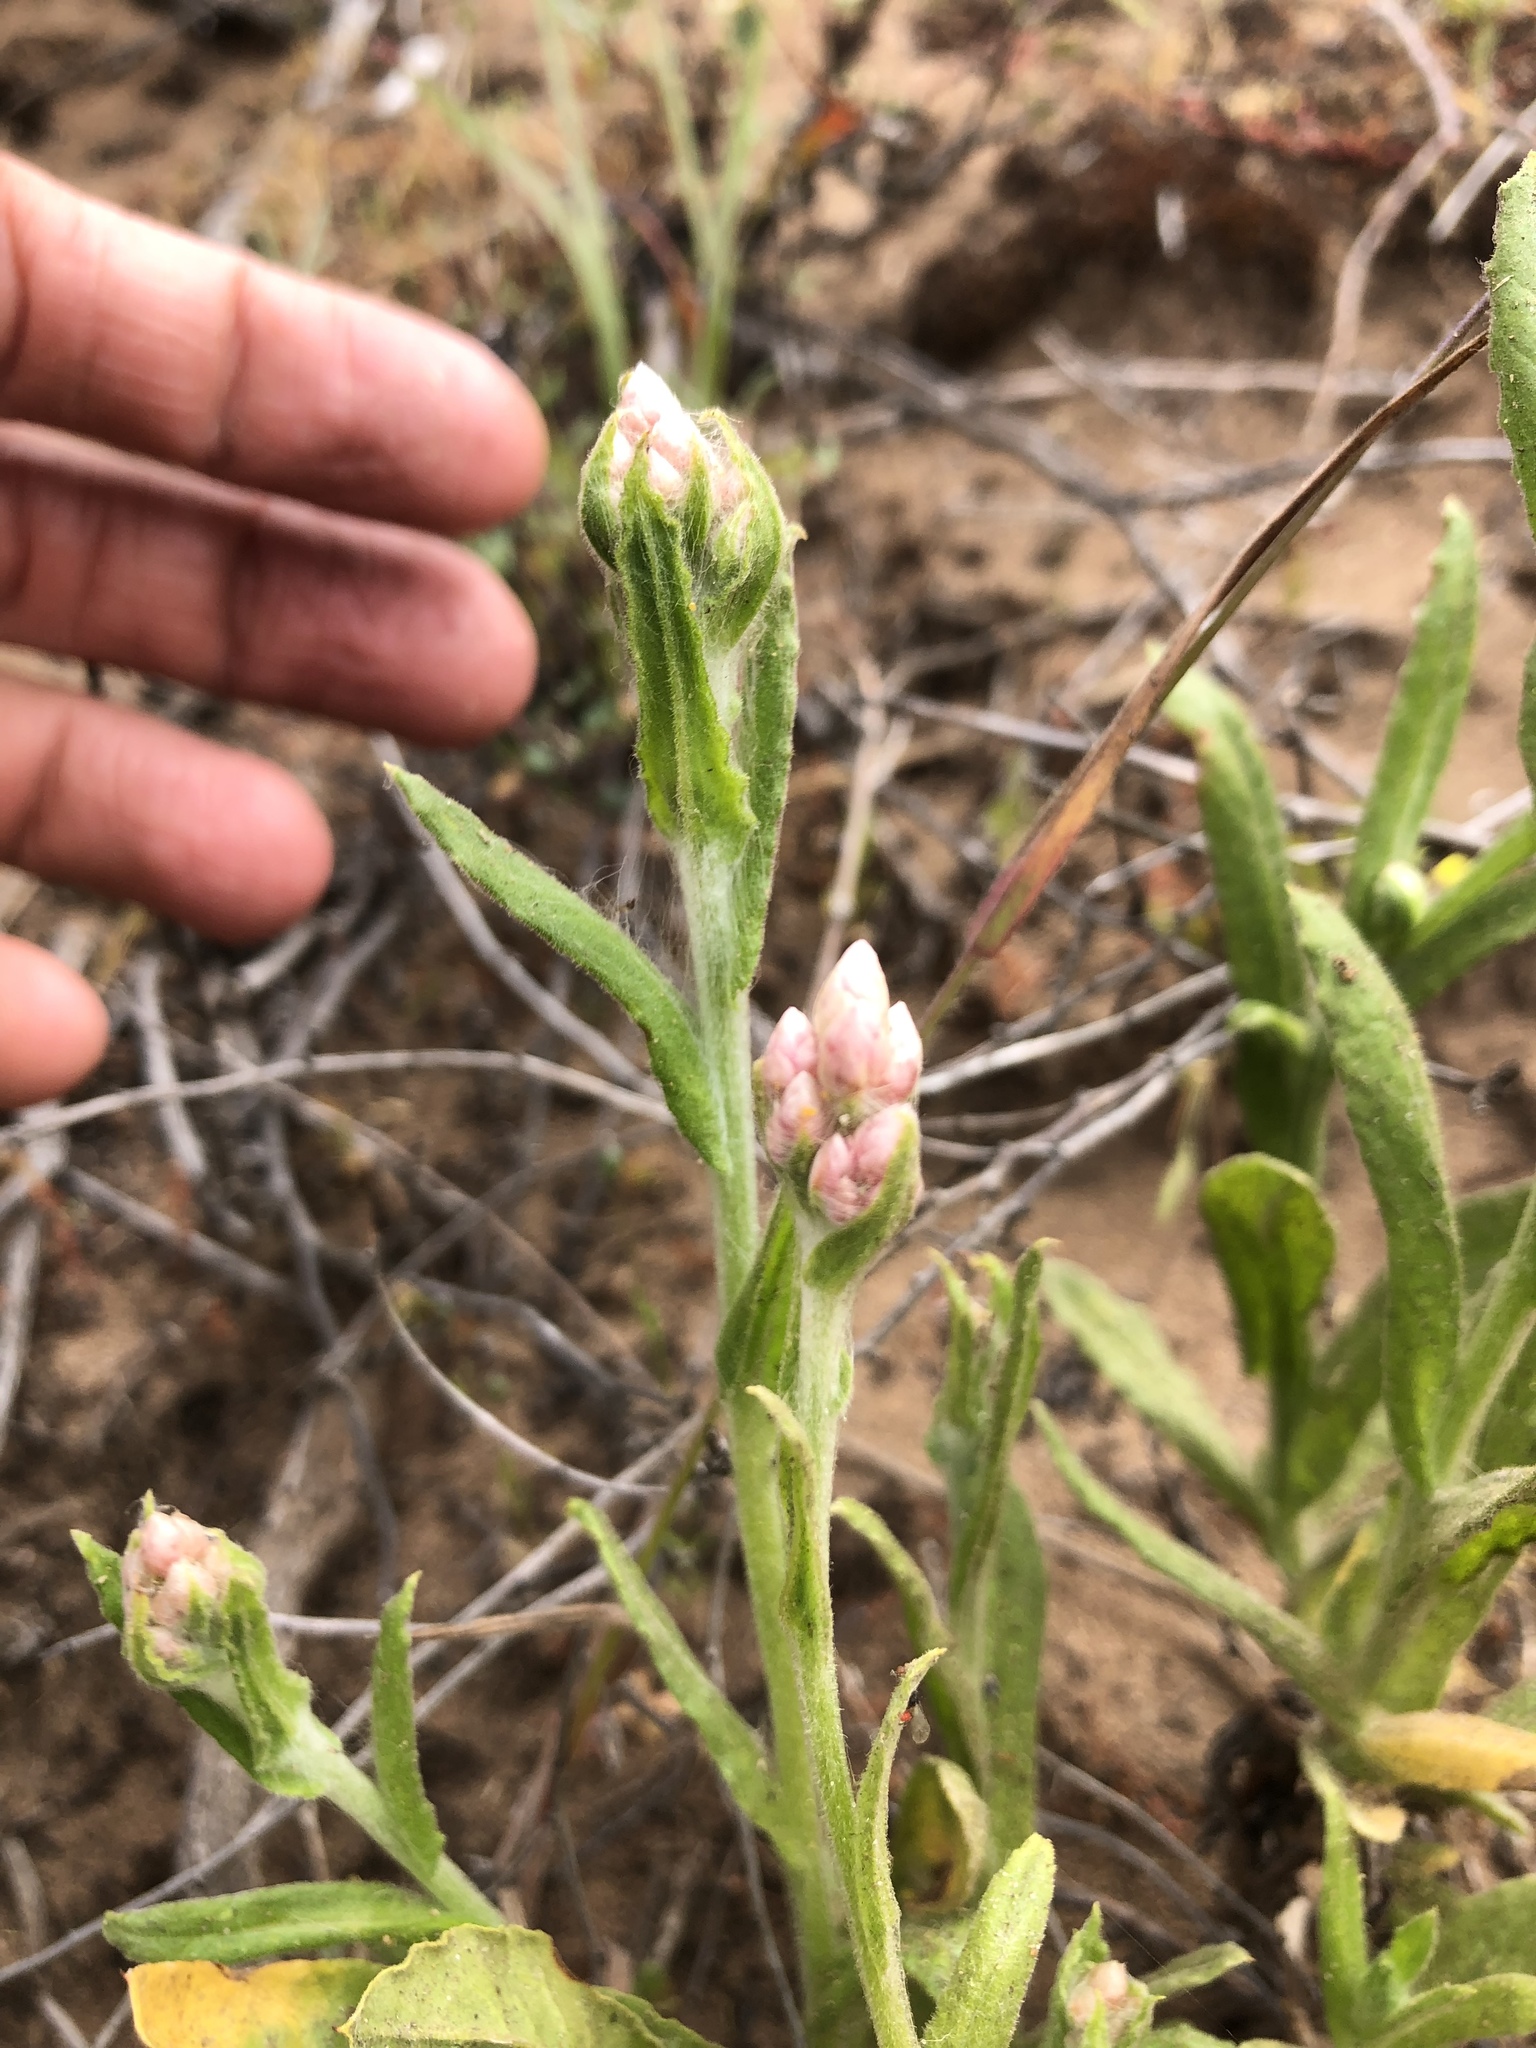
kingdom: Plantae
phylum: Tracheophyta
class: Magnoliopsida
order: Asterales
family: Asteraceae
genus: Pseudognaphalium
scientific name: Pseudognaphalium ramosissimum
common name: Pink rabbit-tobacco
